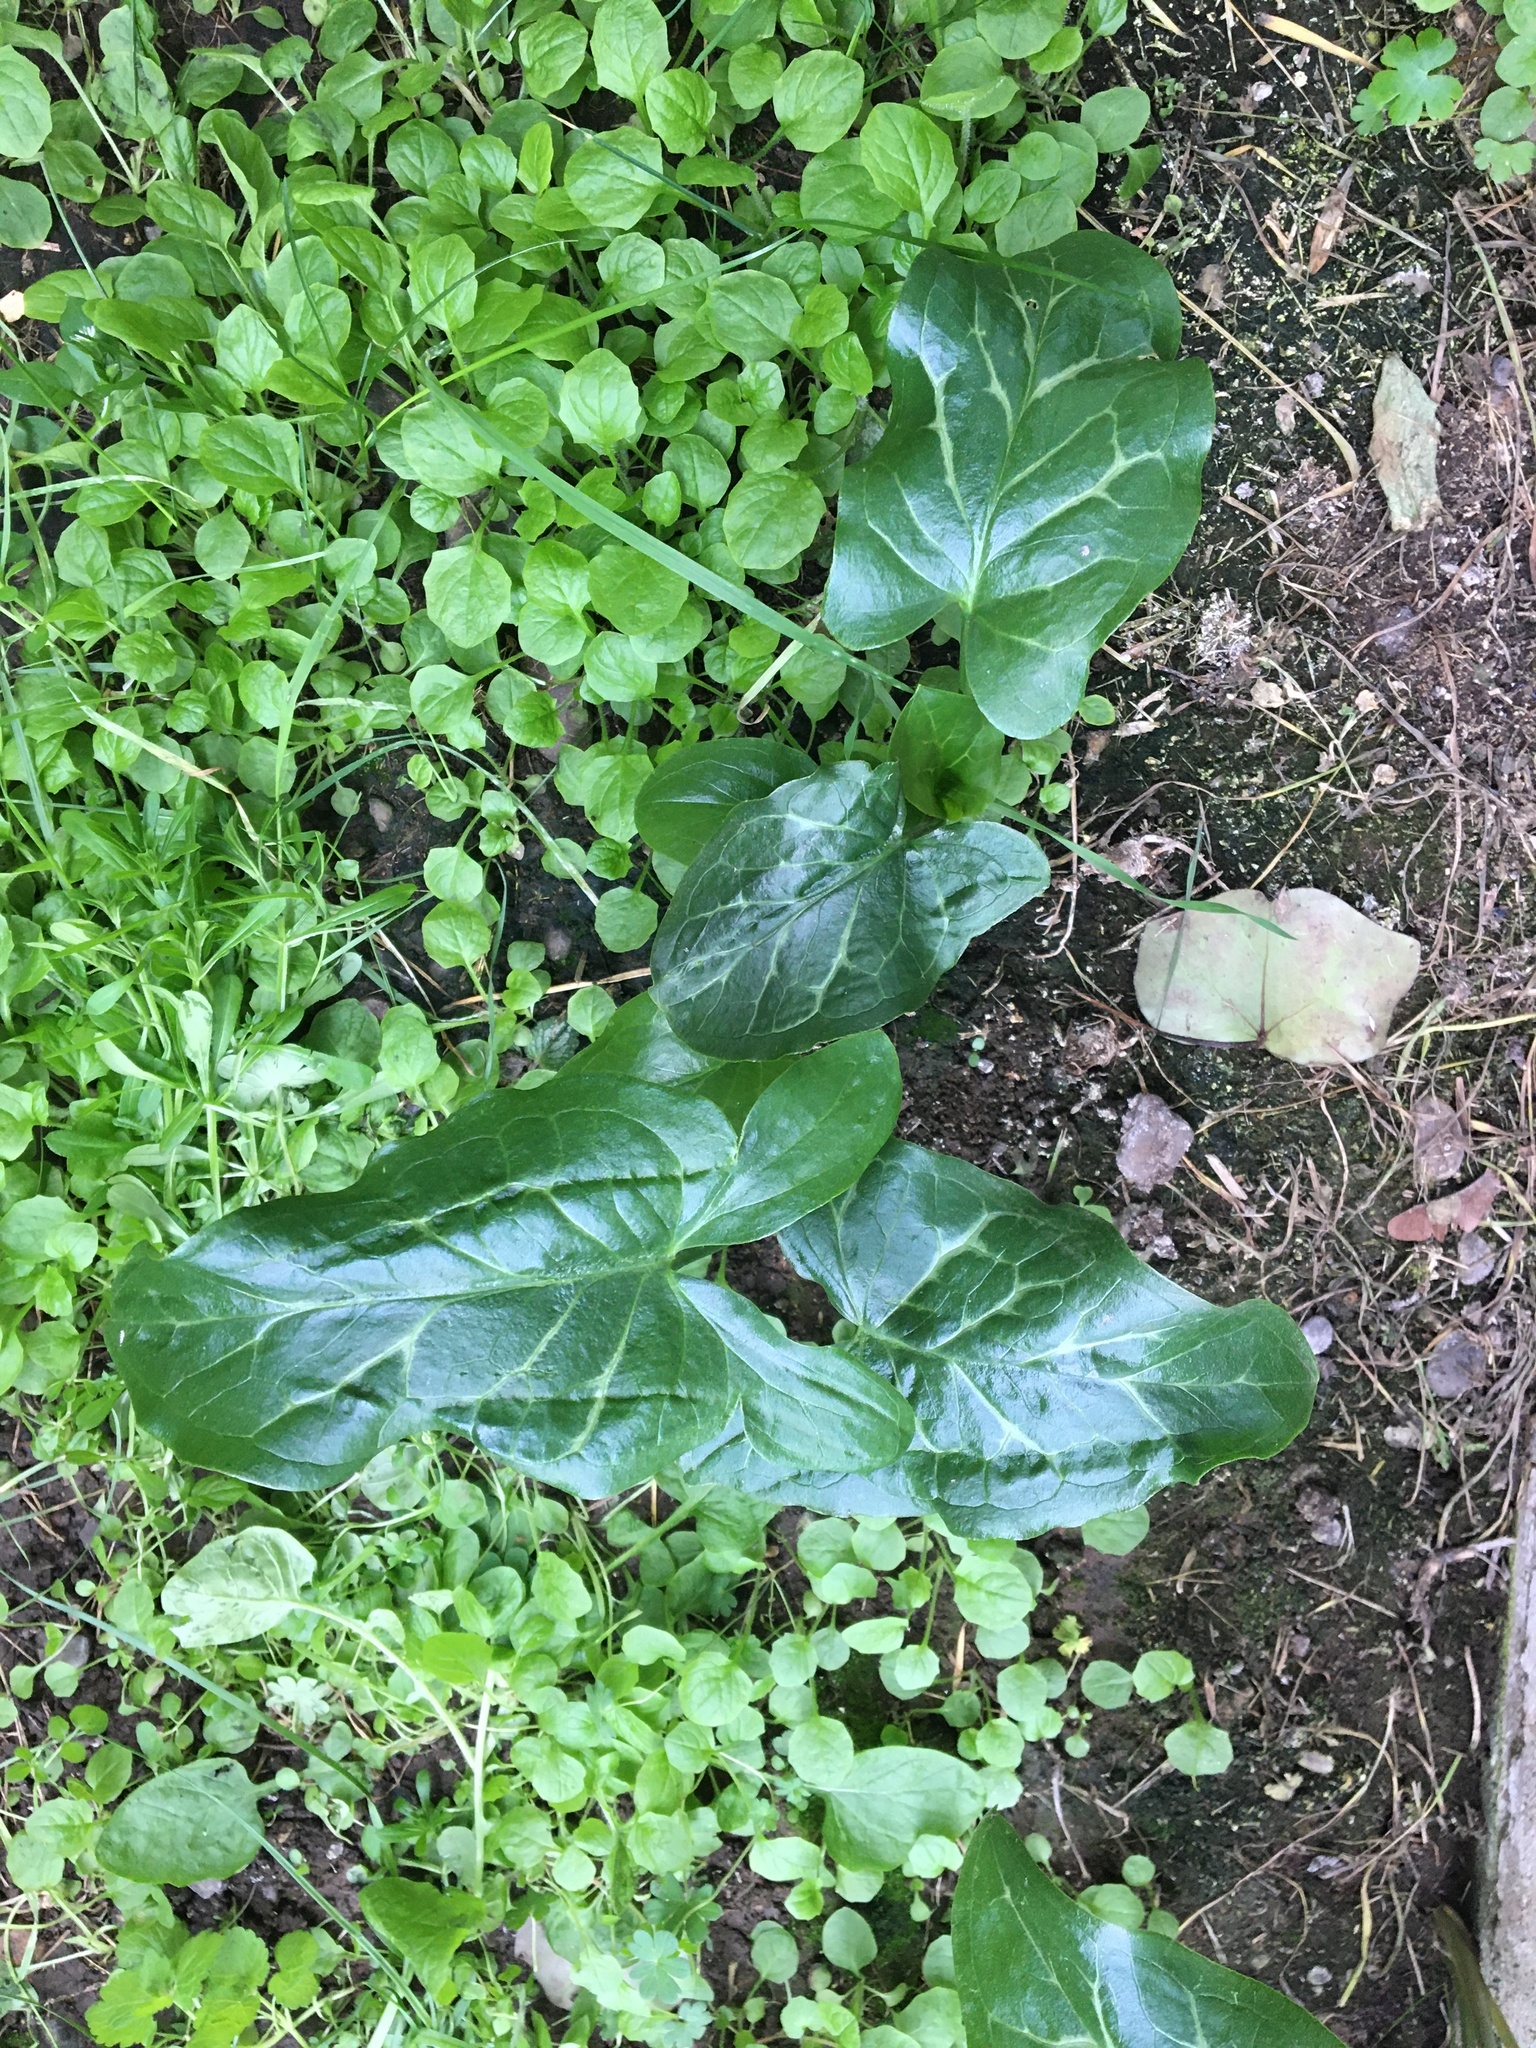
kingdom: Plantae
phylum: Tracheophyta
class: Liliopsida
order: Alismatales
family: Araceae
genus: Arum
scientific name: Arum italicum
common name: Italian lords-and-ladies
